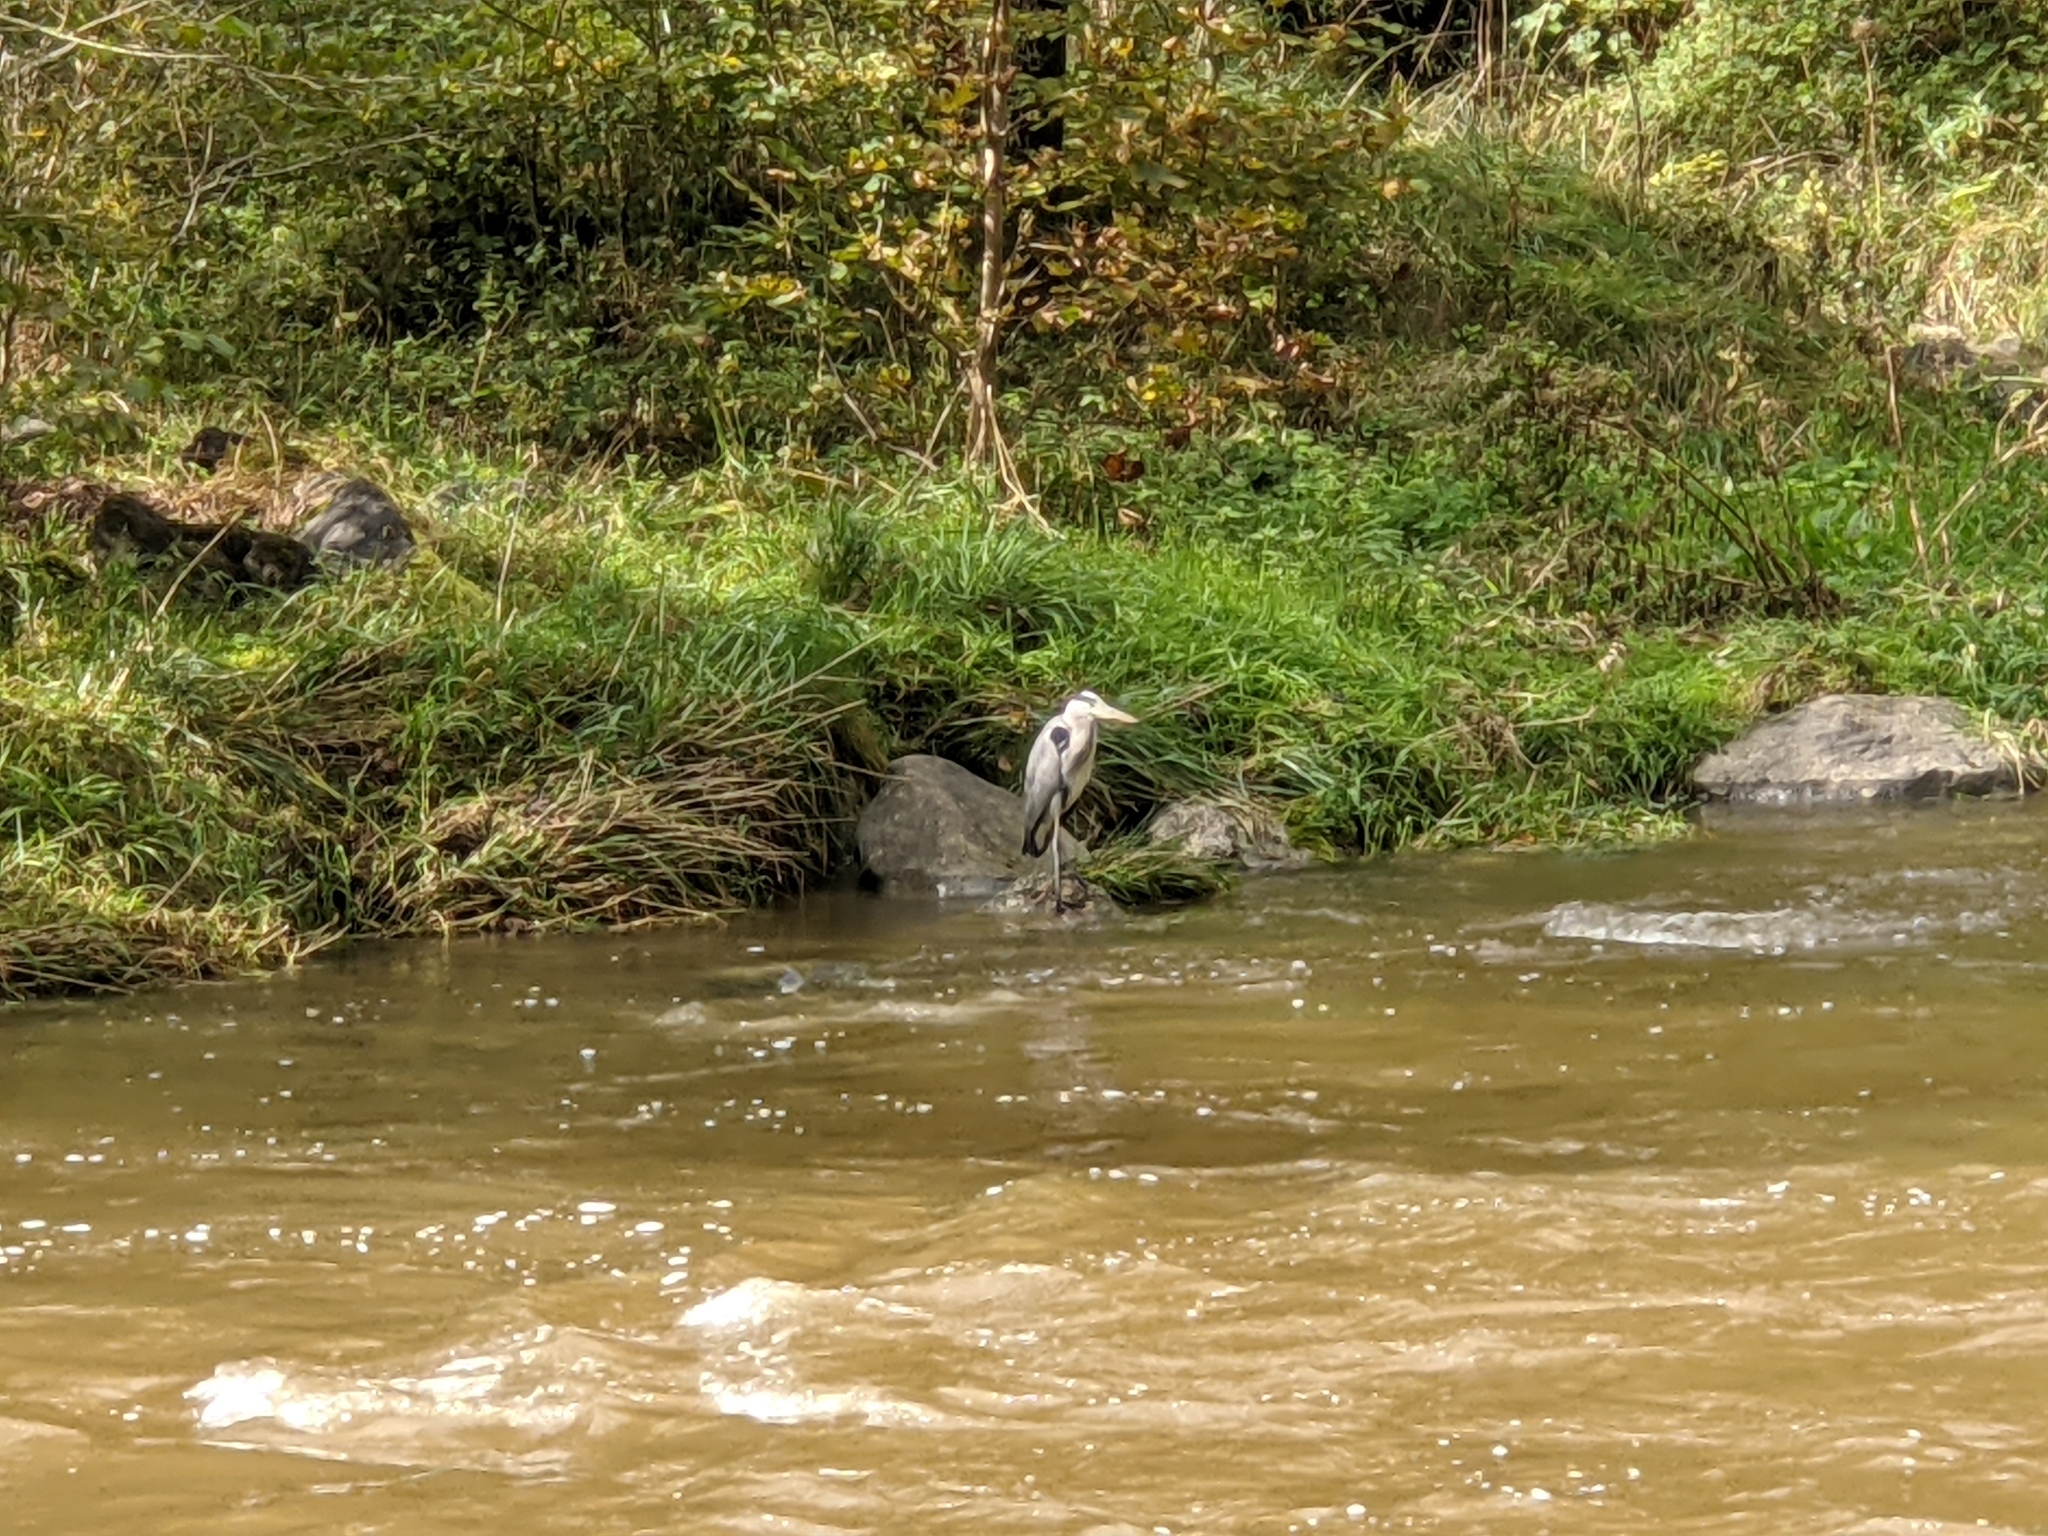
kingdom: Animalia
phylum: Chordata
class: Aves
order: Pelecaniformes
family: Ardeidae
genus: Ardea
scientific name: Ardea cinerea
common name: Grey heron
